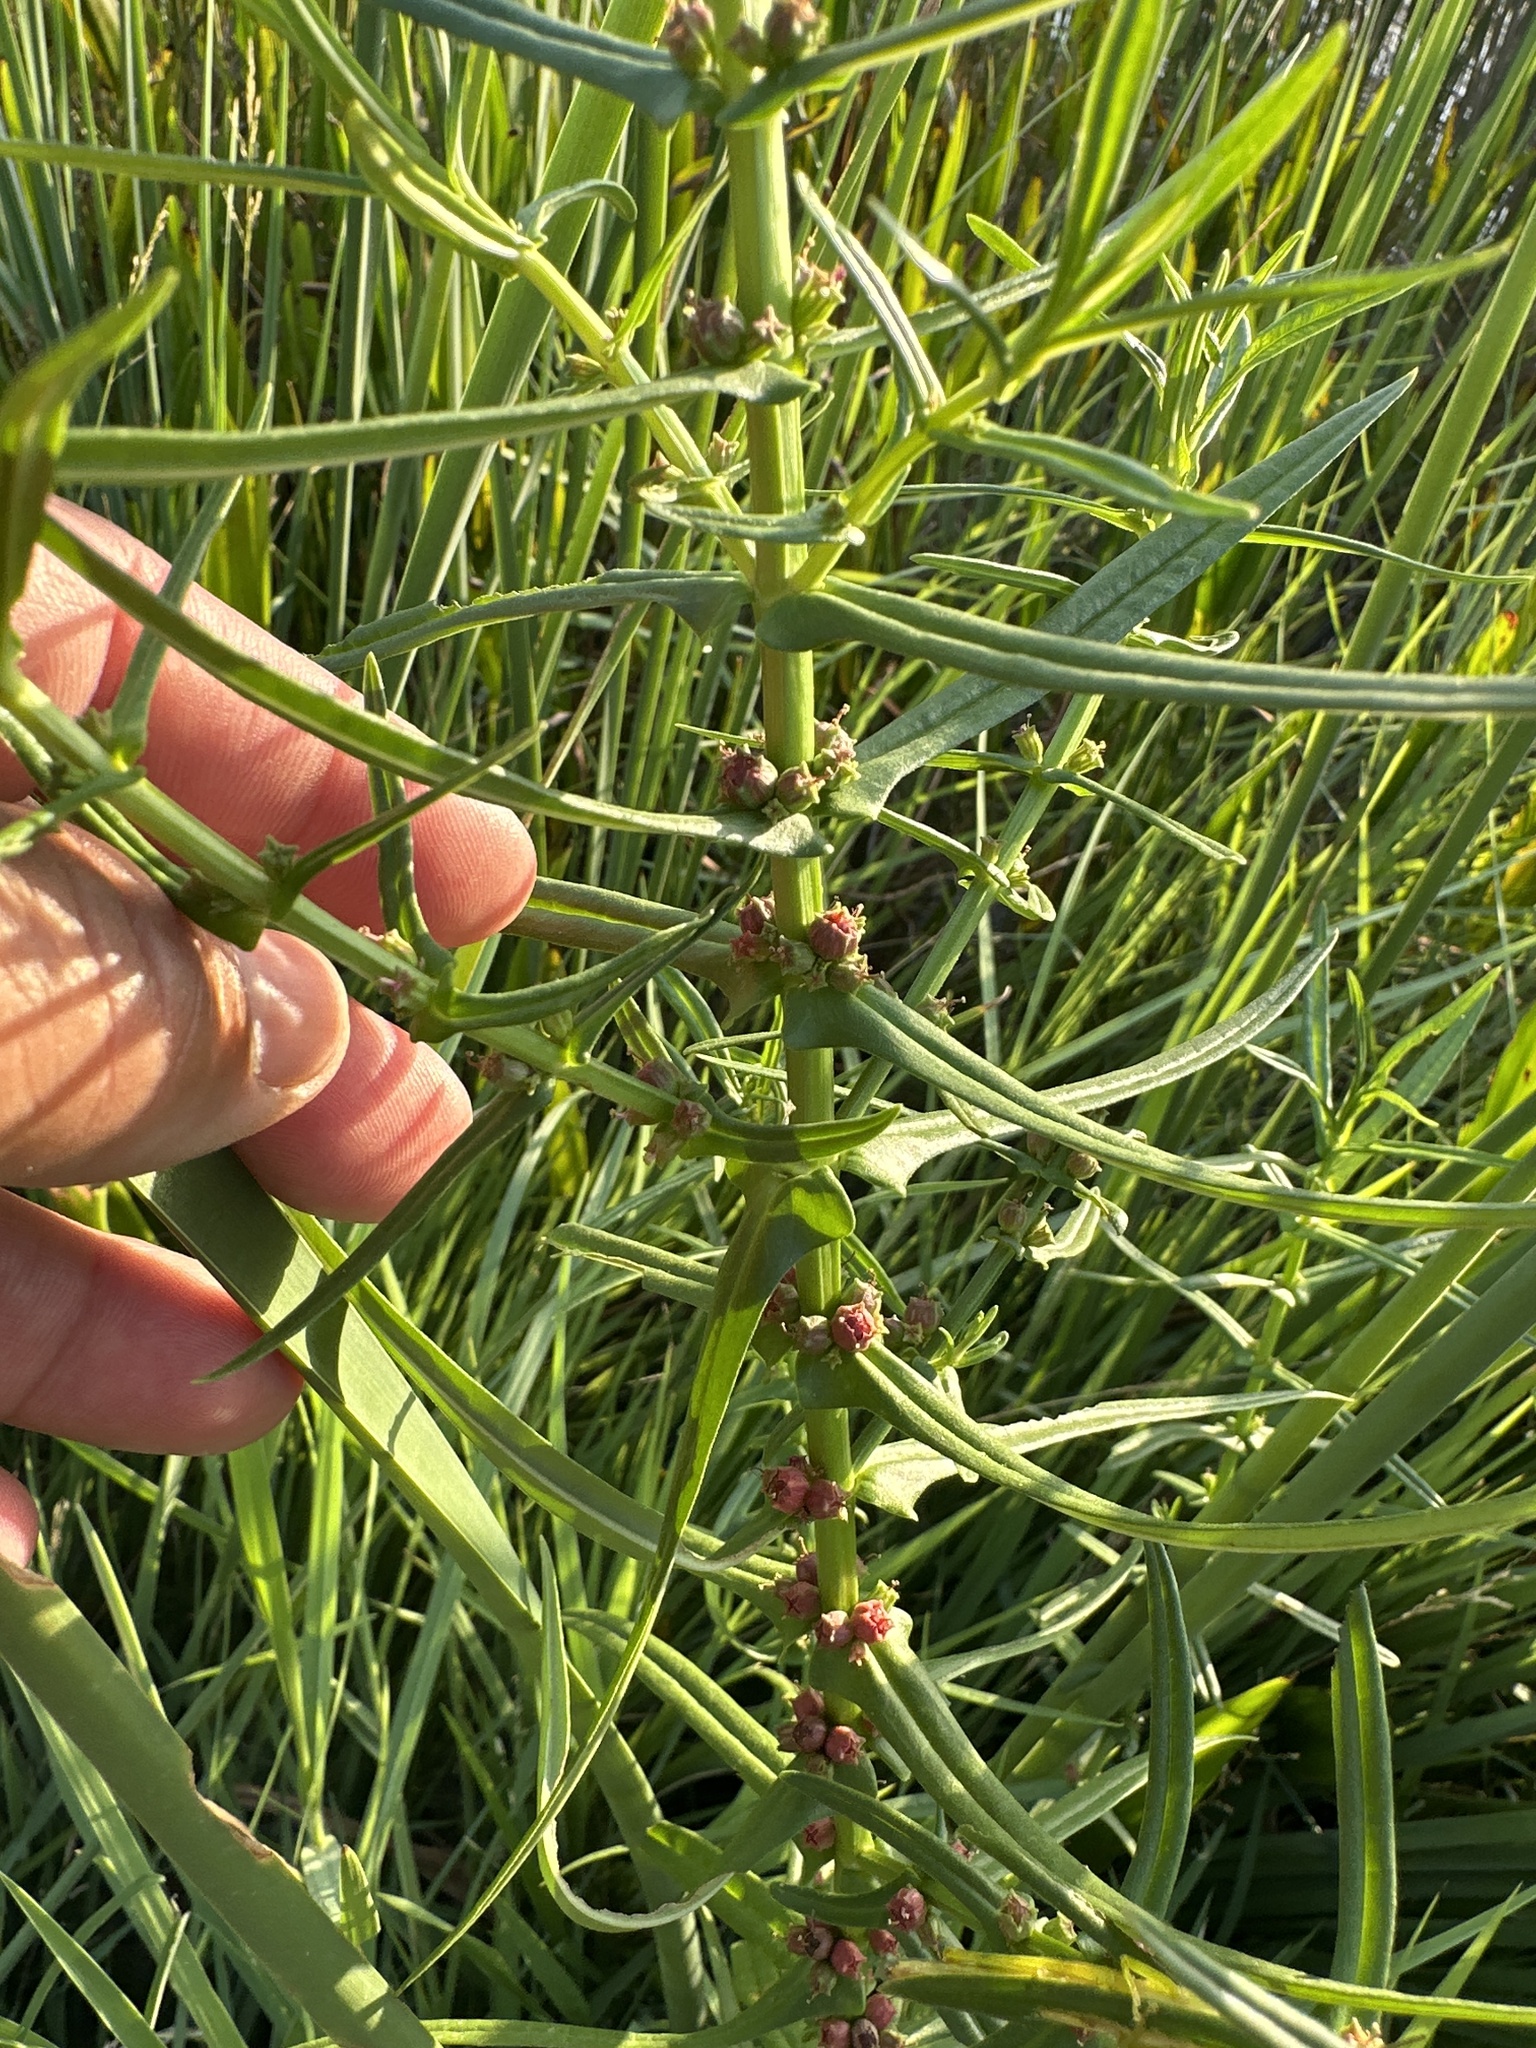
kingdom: Plantae
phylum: Tracheophyta
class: Magnoliopsida
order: Myrtales
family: Lythraceae
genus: Ammannia
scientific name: Ammannia coccinea
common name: Valley redstem
